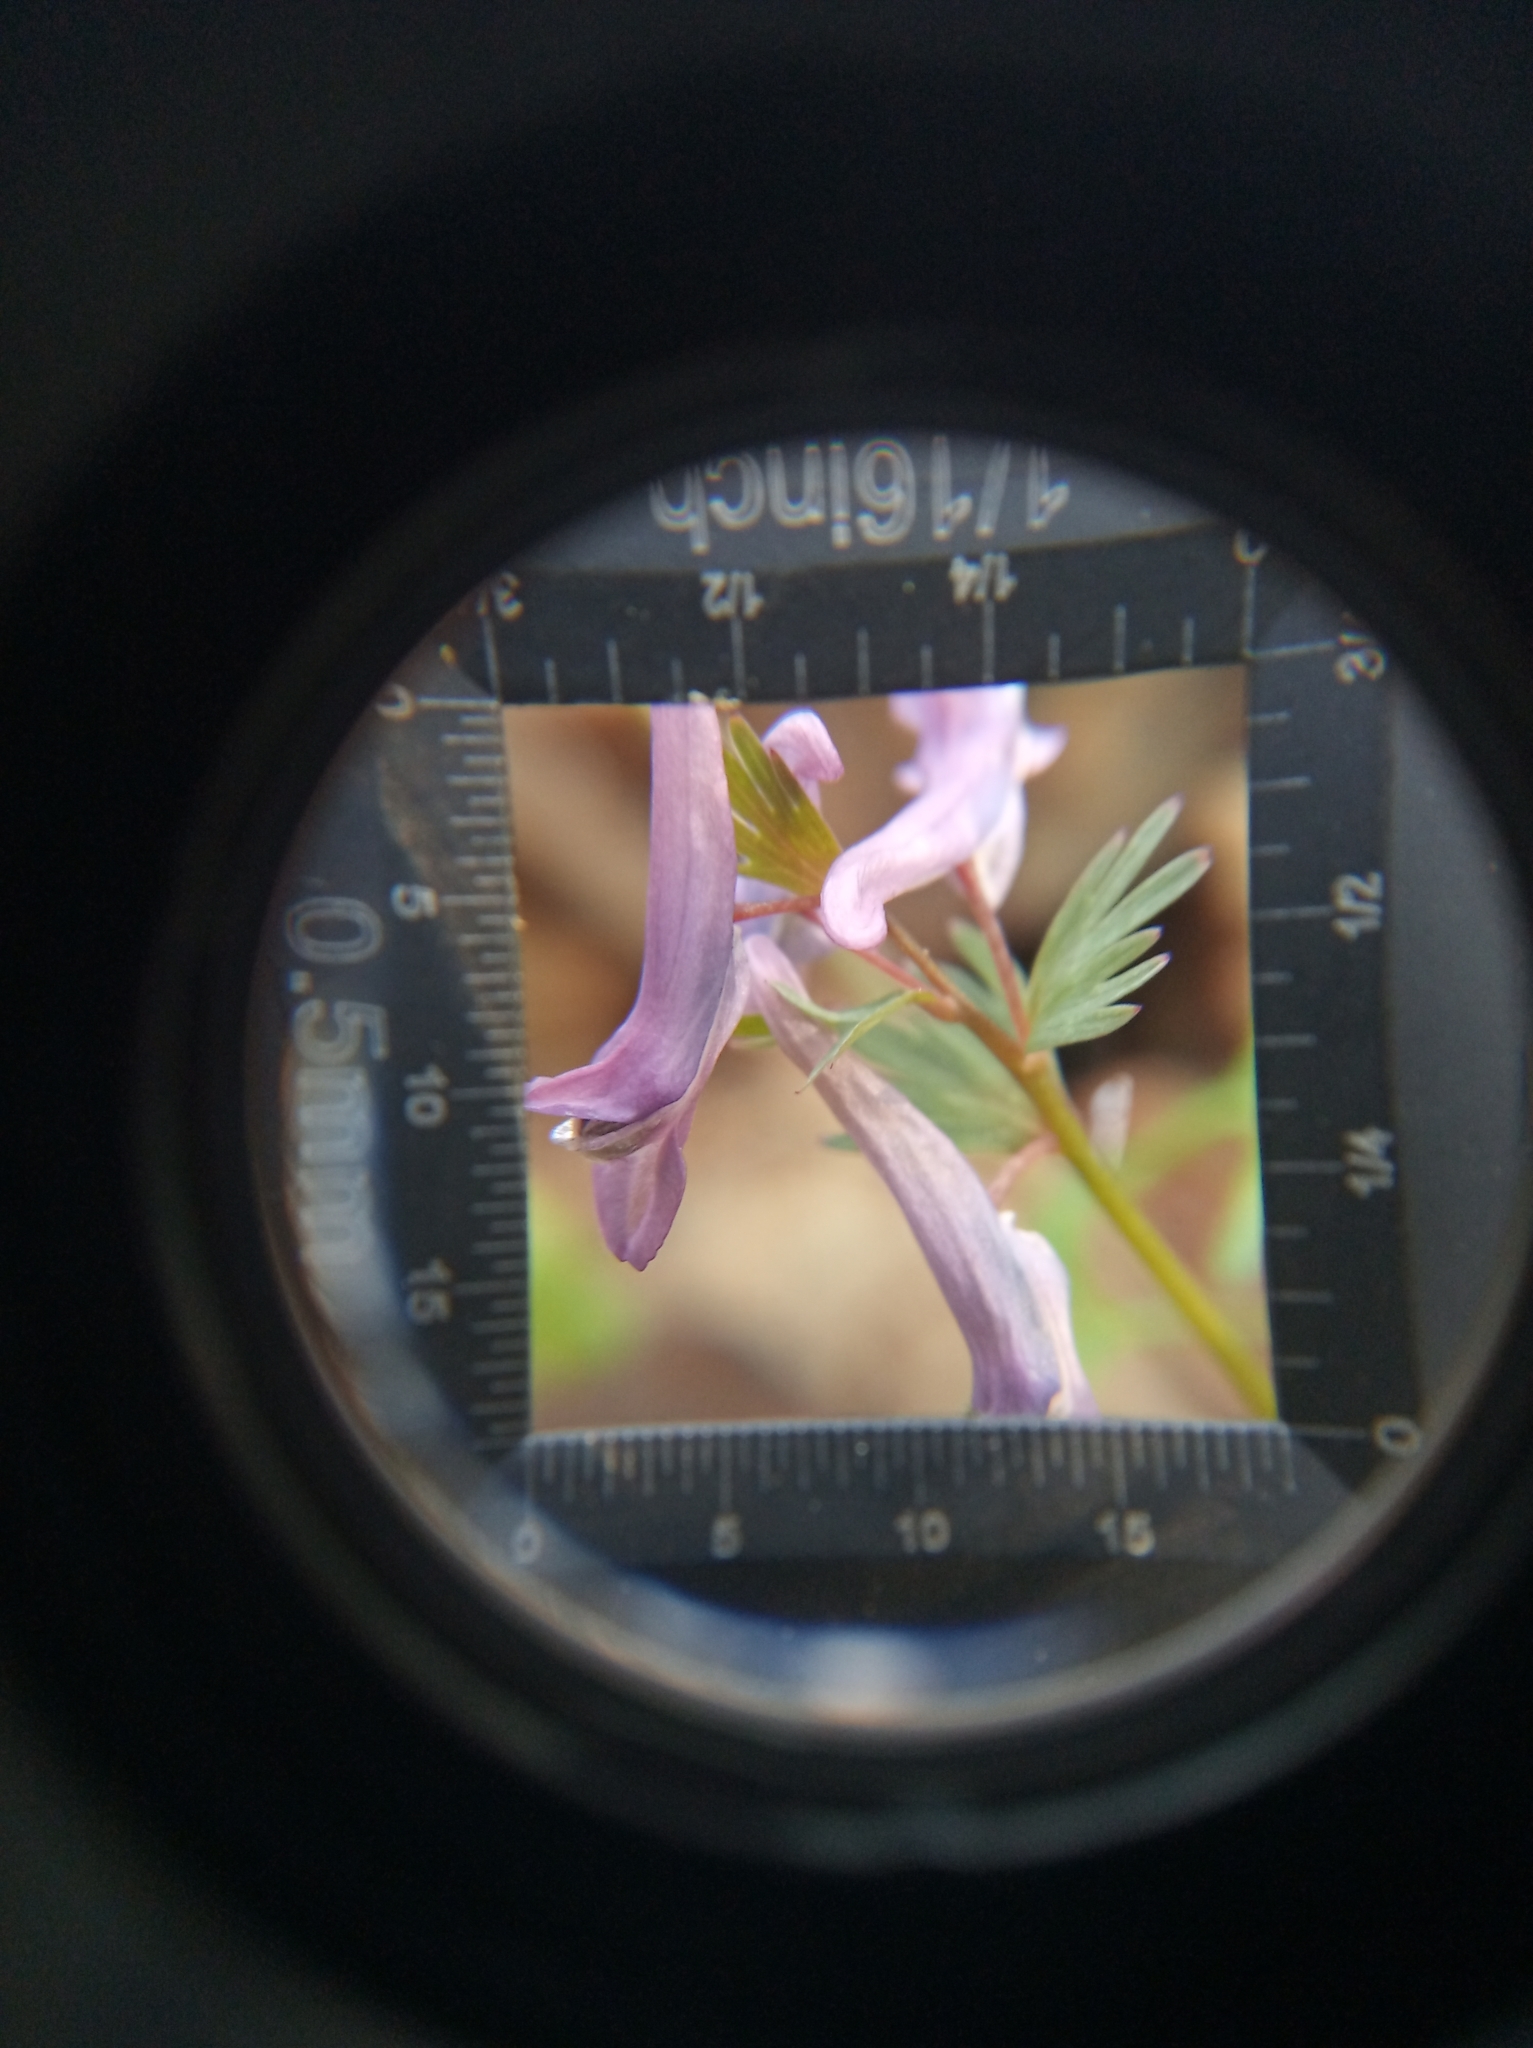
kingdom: Plantae
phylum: Tracheophyta
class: Magnoliopsida
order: Fabales
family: Fabaceae
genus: Lathyrus
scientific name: Lathyrus vernus
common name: Spring pea
